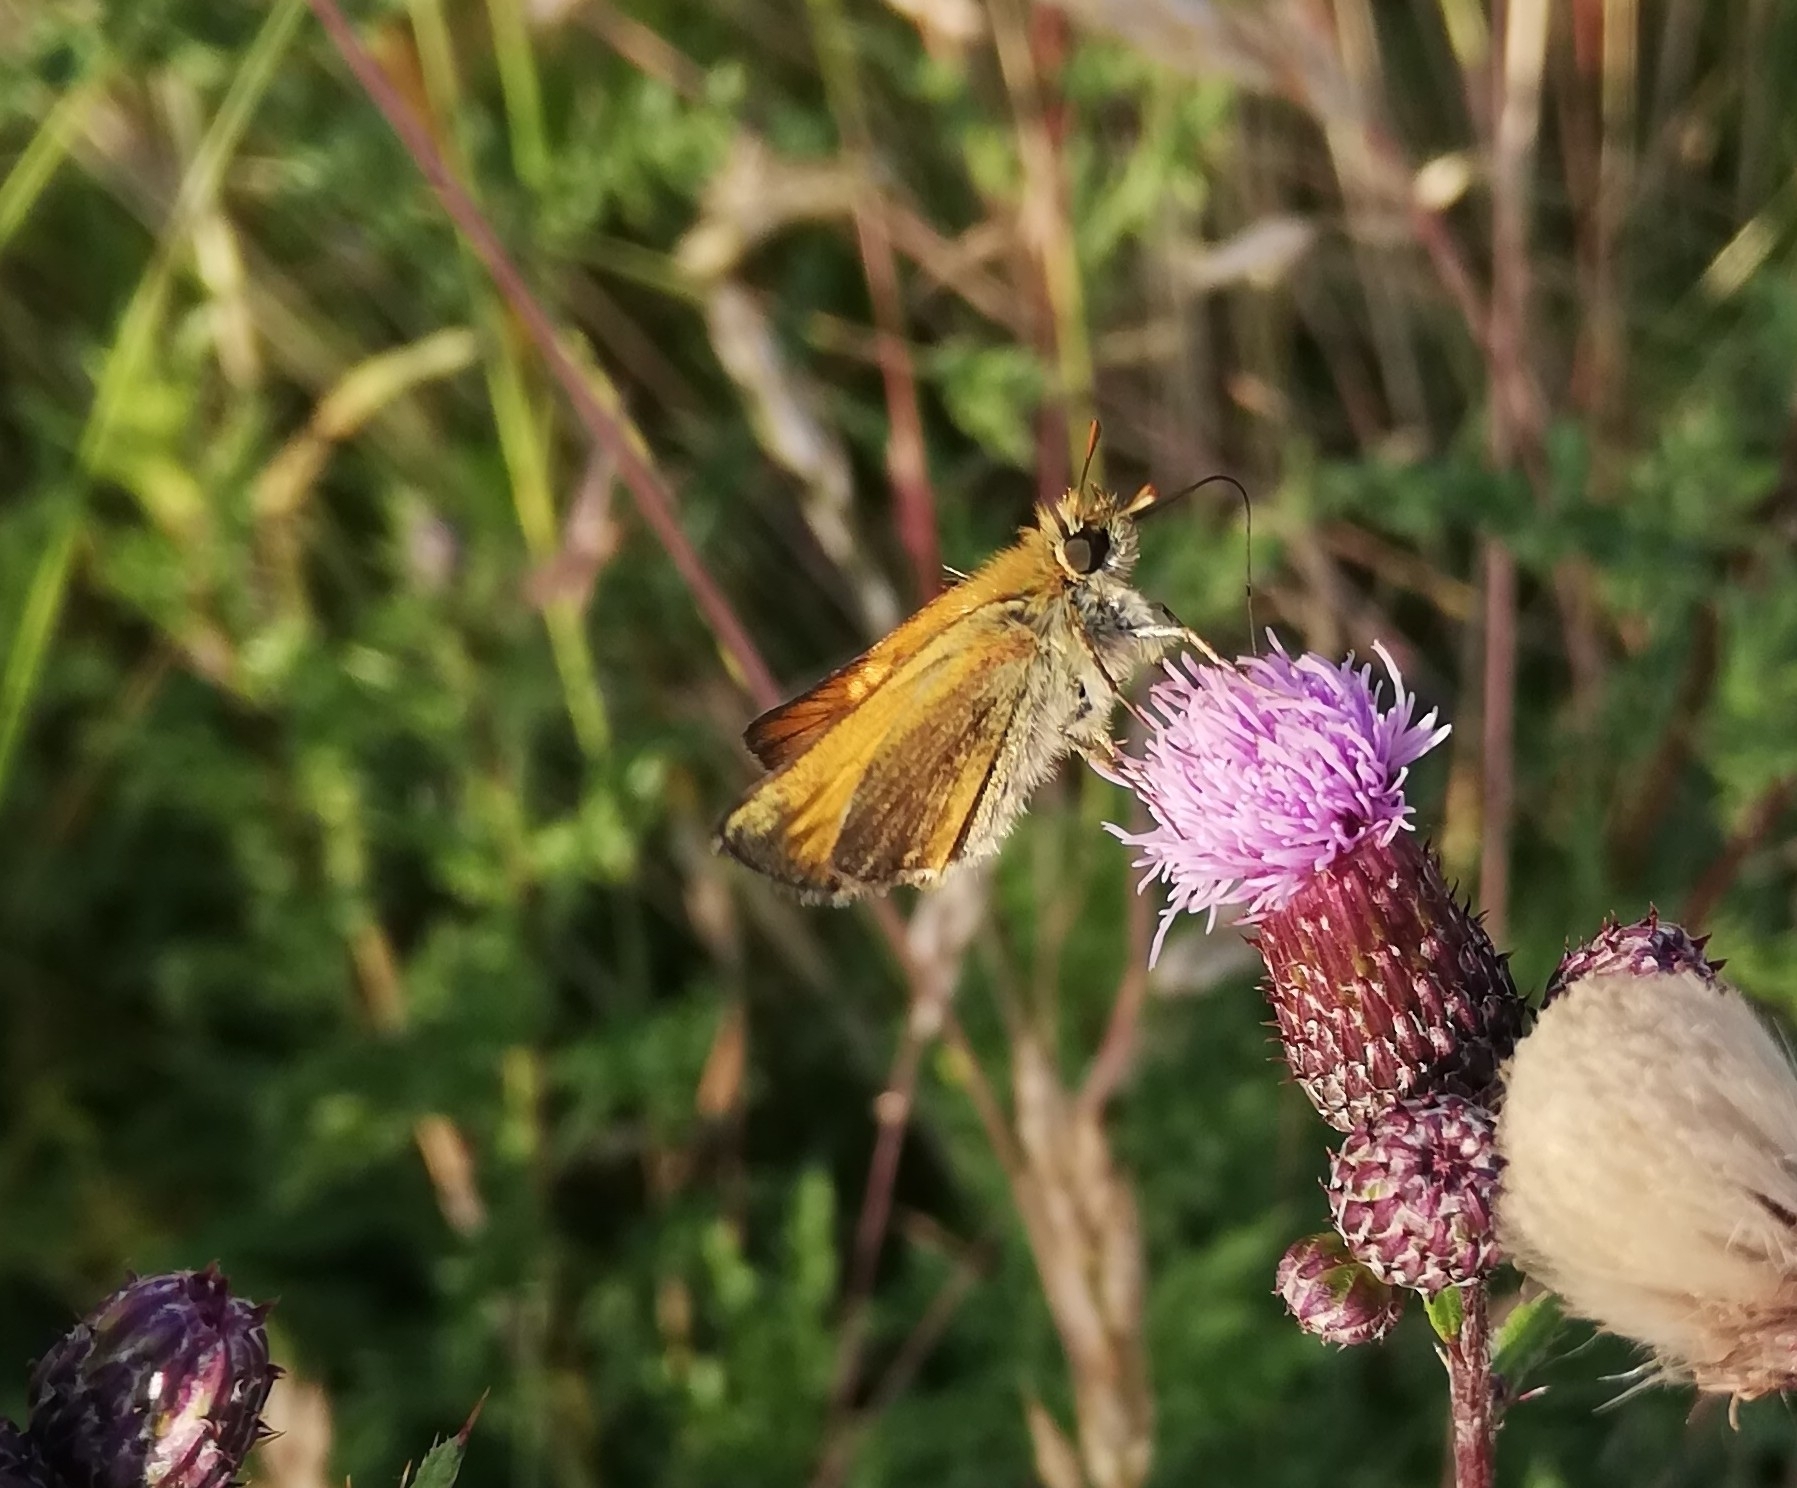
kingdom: Animalia
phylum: Arthropoda
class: Insecta
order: Lepidoptera
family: Hesperiidae
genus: Thymelicus
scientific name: Thymelicus sylvestris
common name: Small skipper
